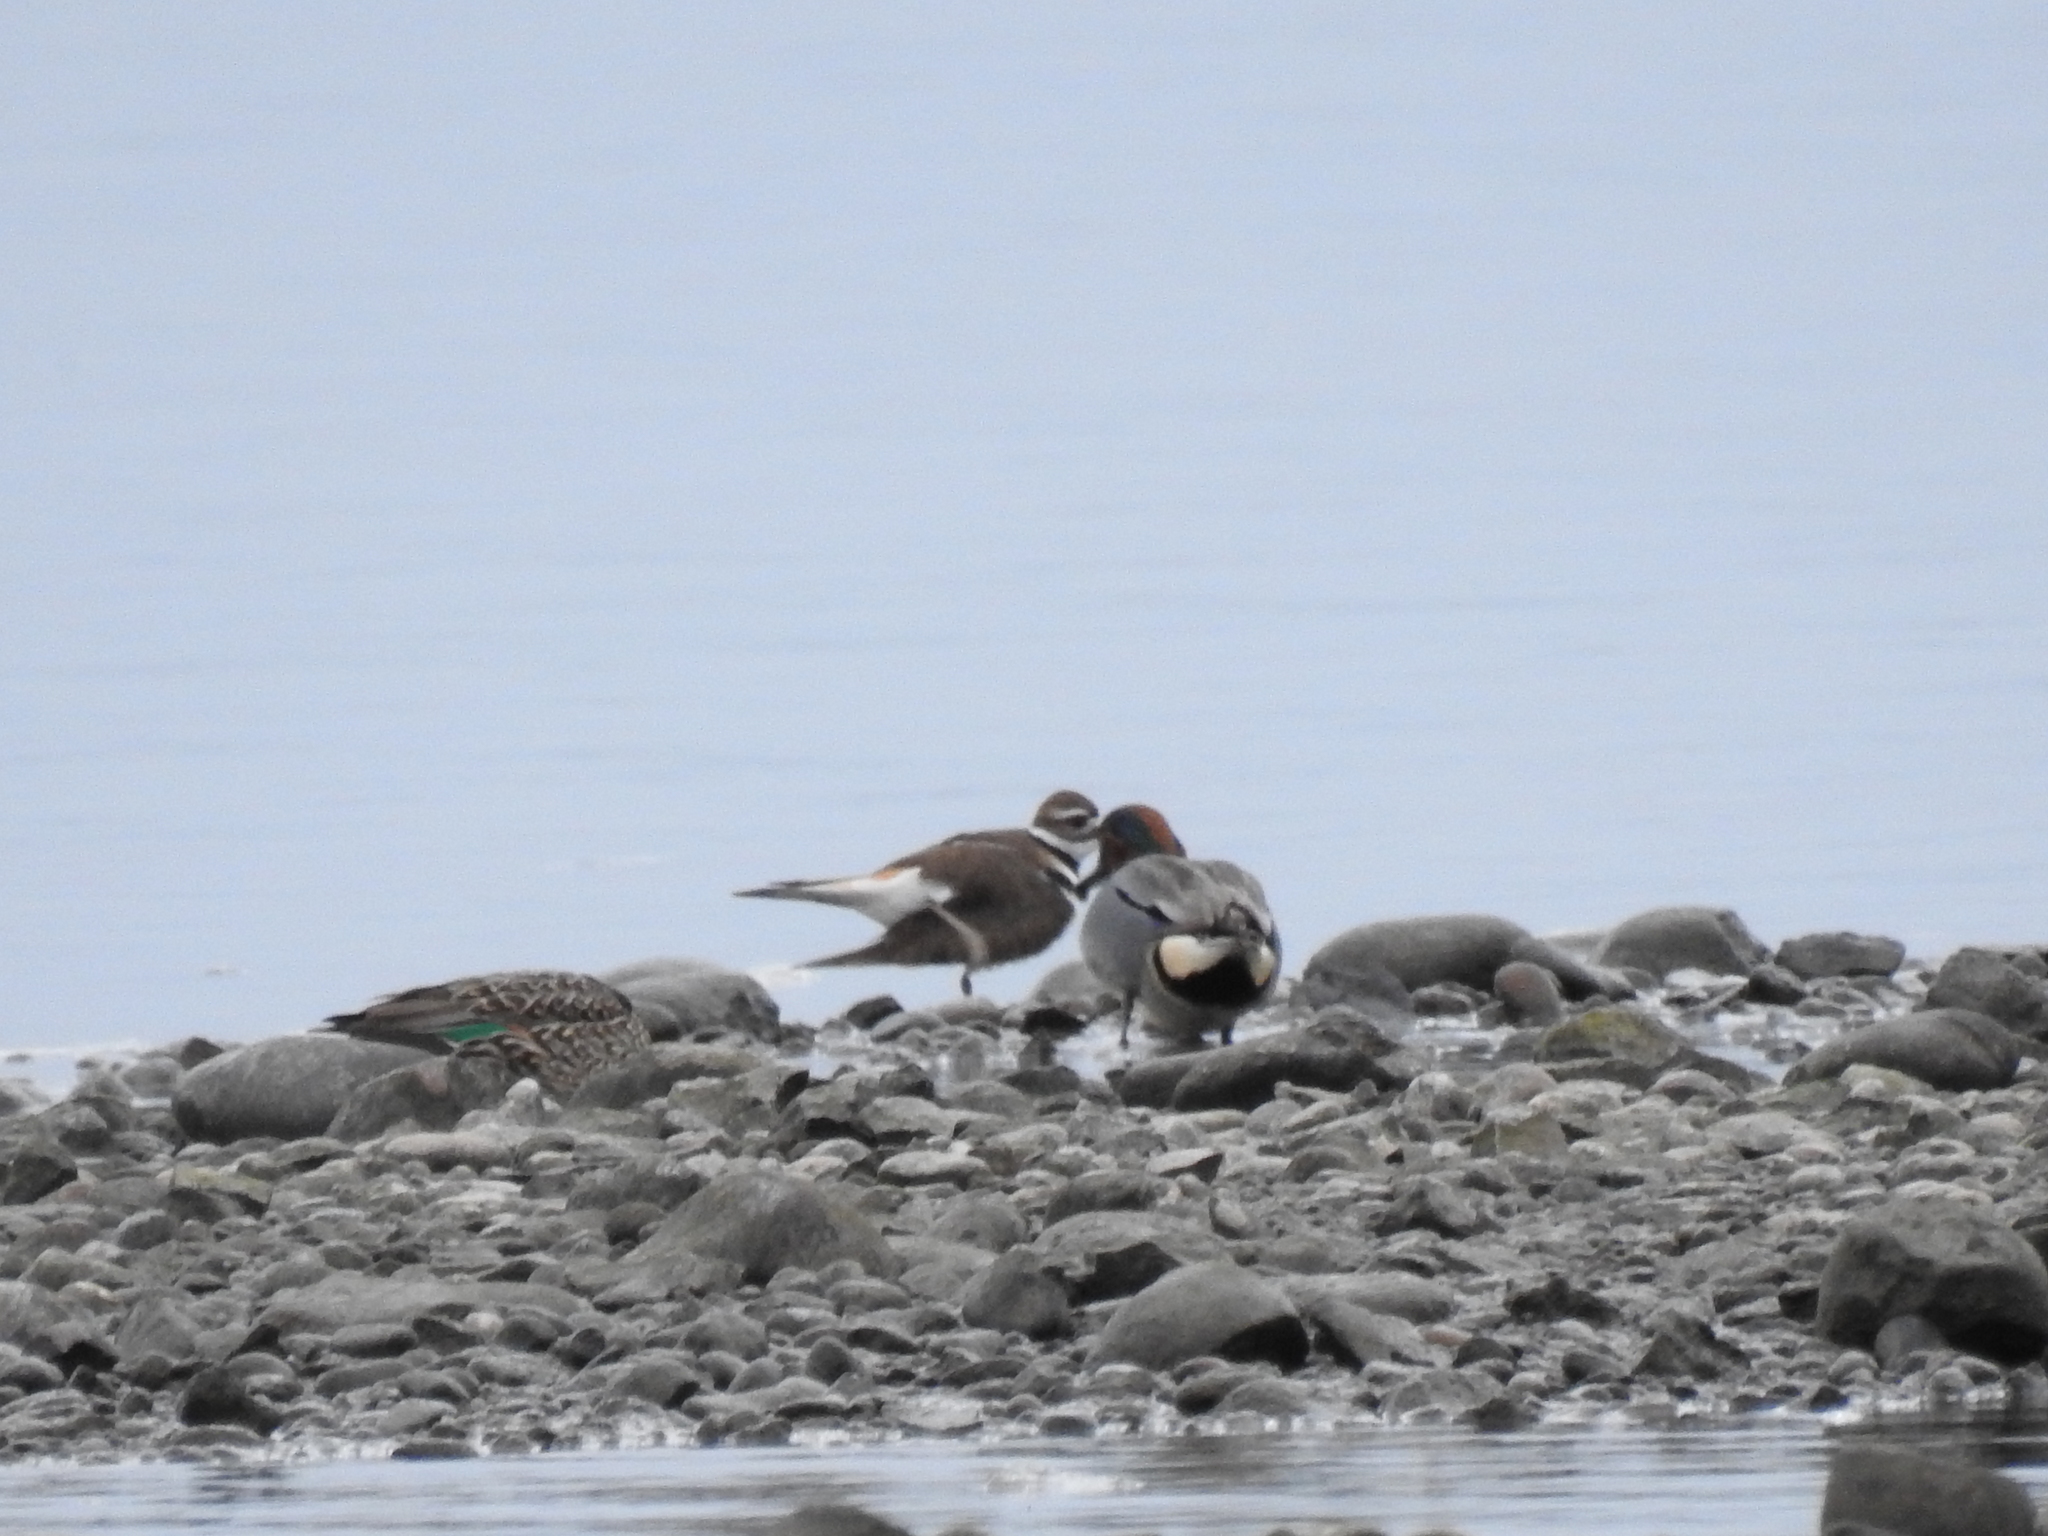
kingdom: Animalia
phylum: Chordata
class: Aves
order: Anseriformes
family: Anatidae
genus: Anas
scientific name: Anas crecca
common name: Eurasian teal
